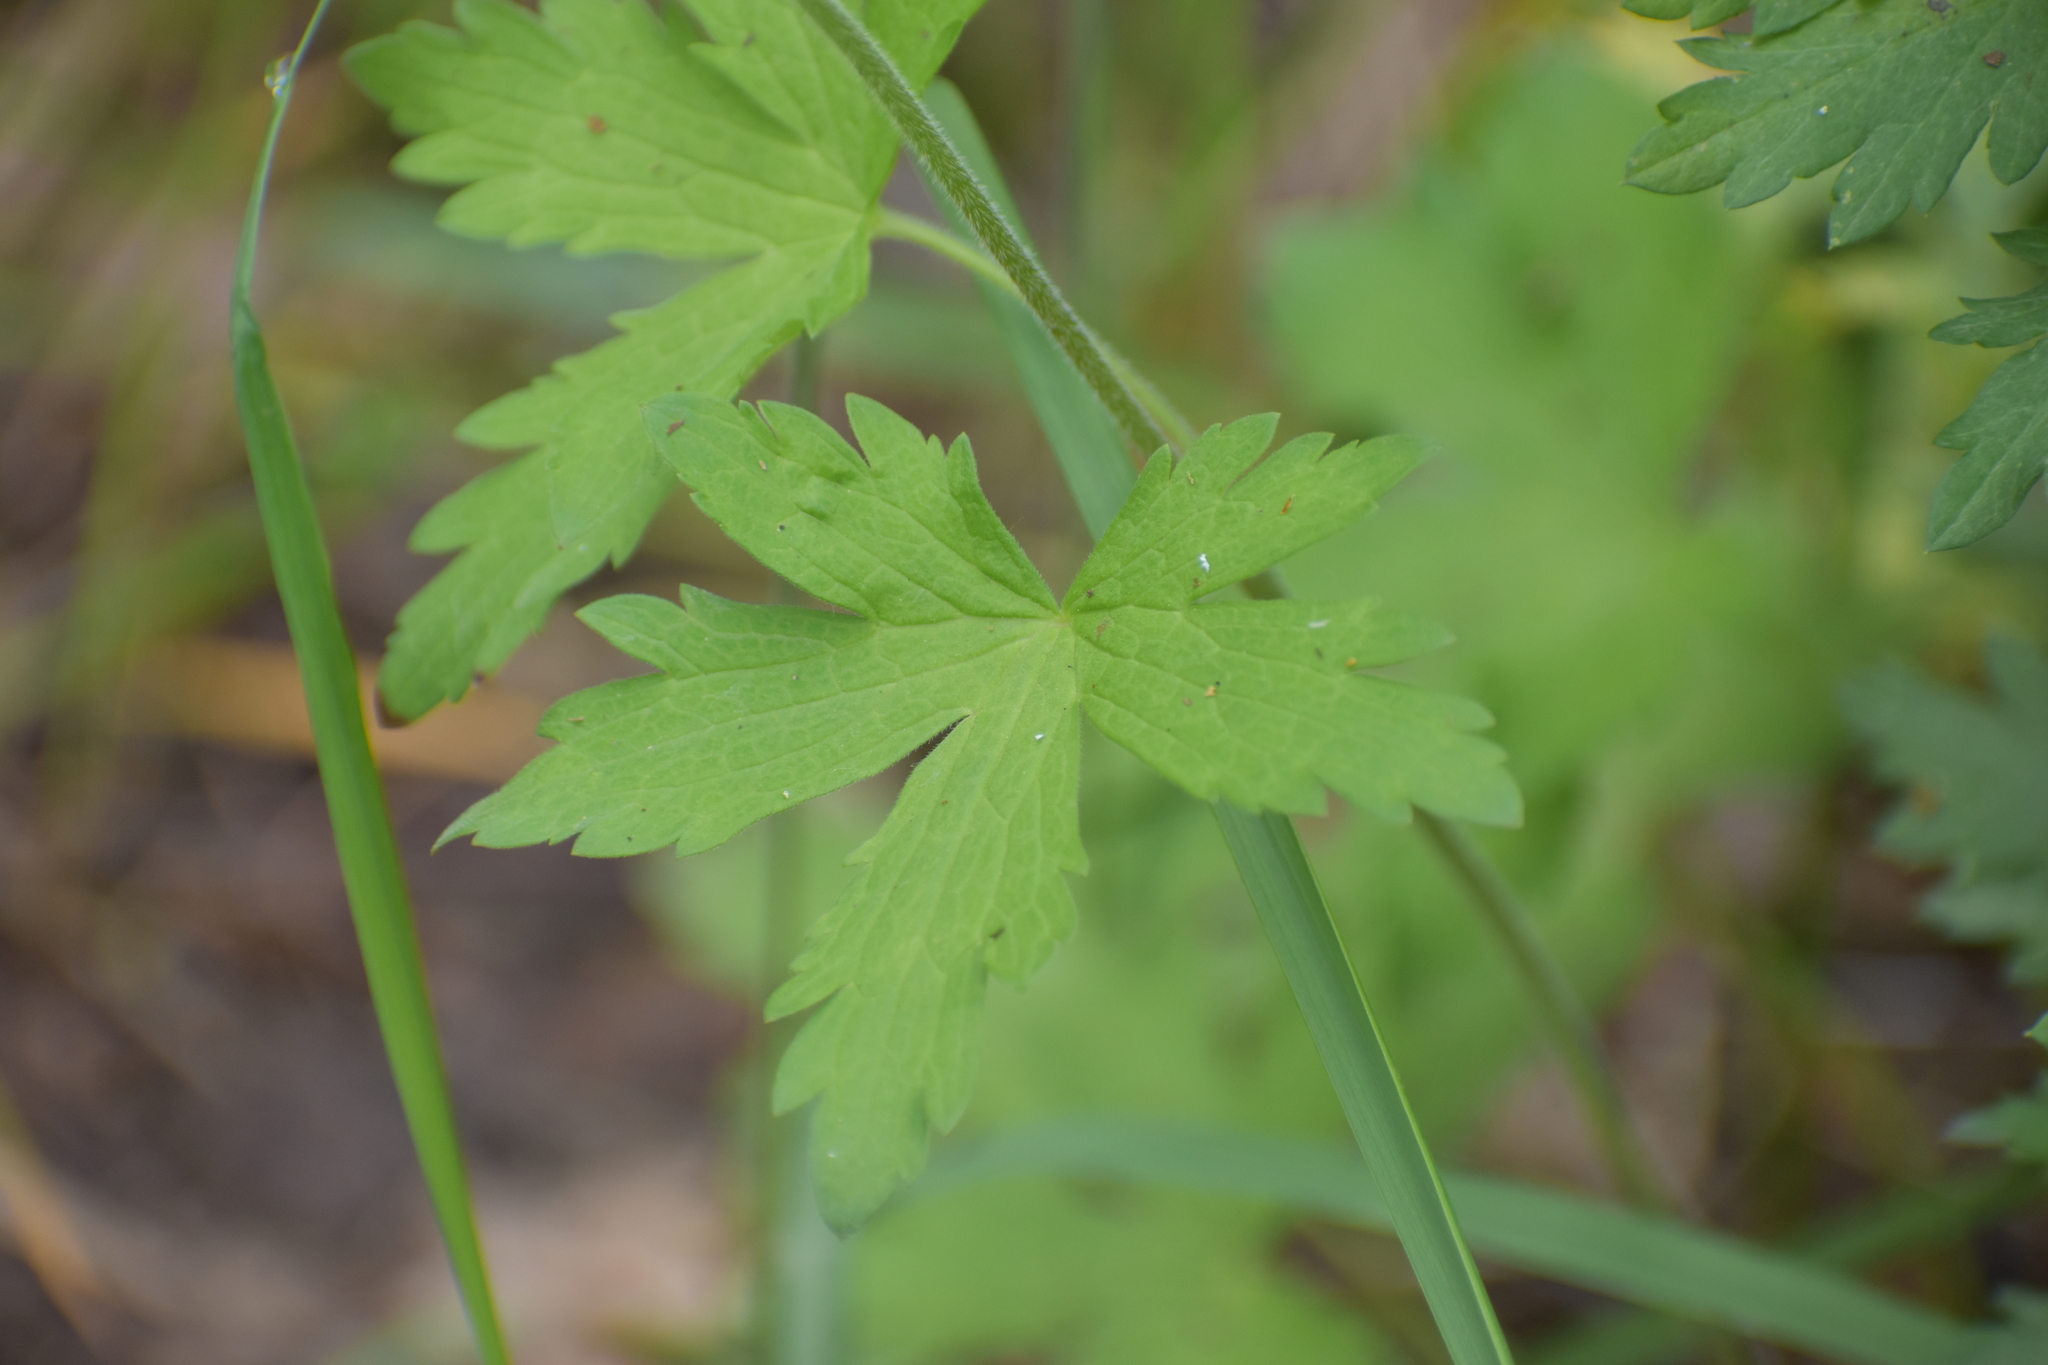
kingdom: Plantae
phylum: Tracheophyta
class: Magnoliopsida
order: Geraniales
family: Geraniaceae
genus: Geranium
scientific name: Geranium sylvaticum
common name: Wood crane's-bill
